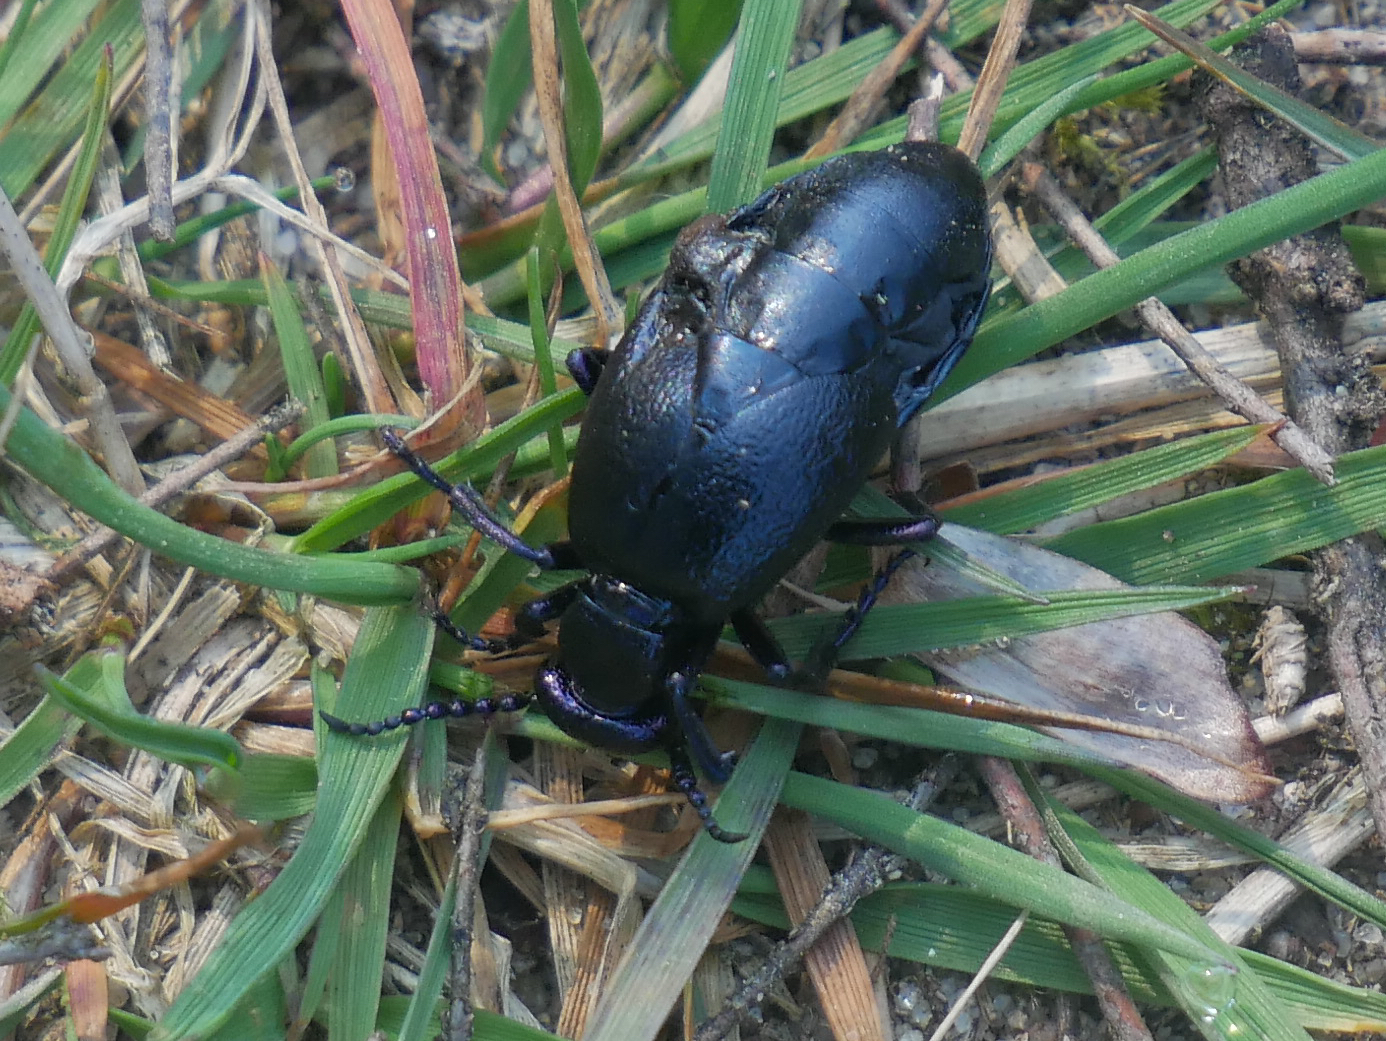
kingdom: Animalia
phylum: Arthropoda
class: Insecta
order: Coleoptera
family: Meloidae
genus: Meloe
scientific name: Meloe proscarabaeus
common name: Black oil-beetle
